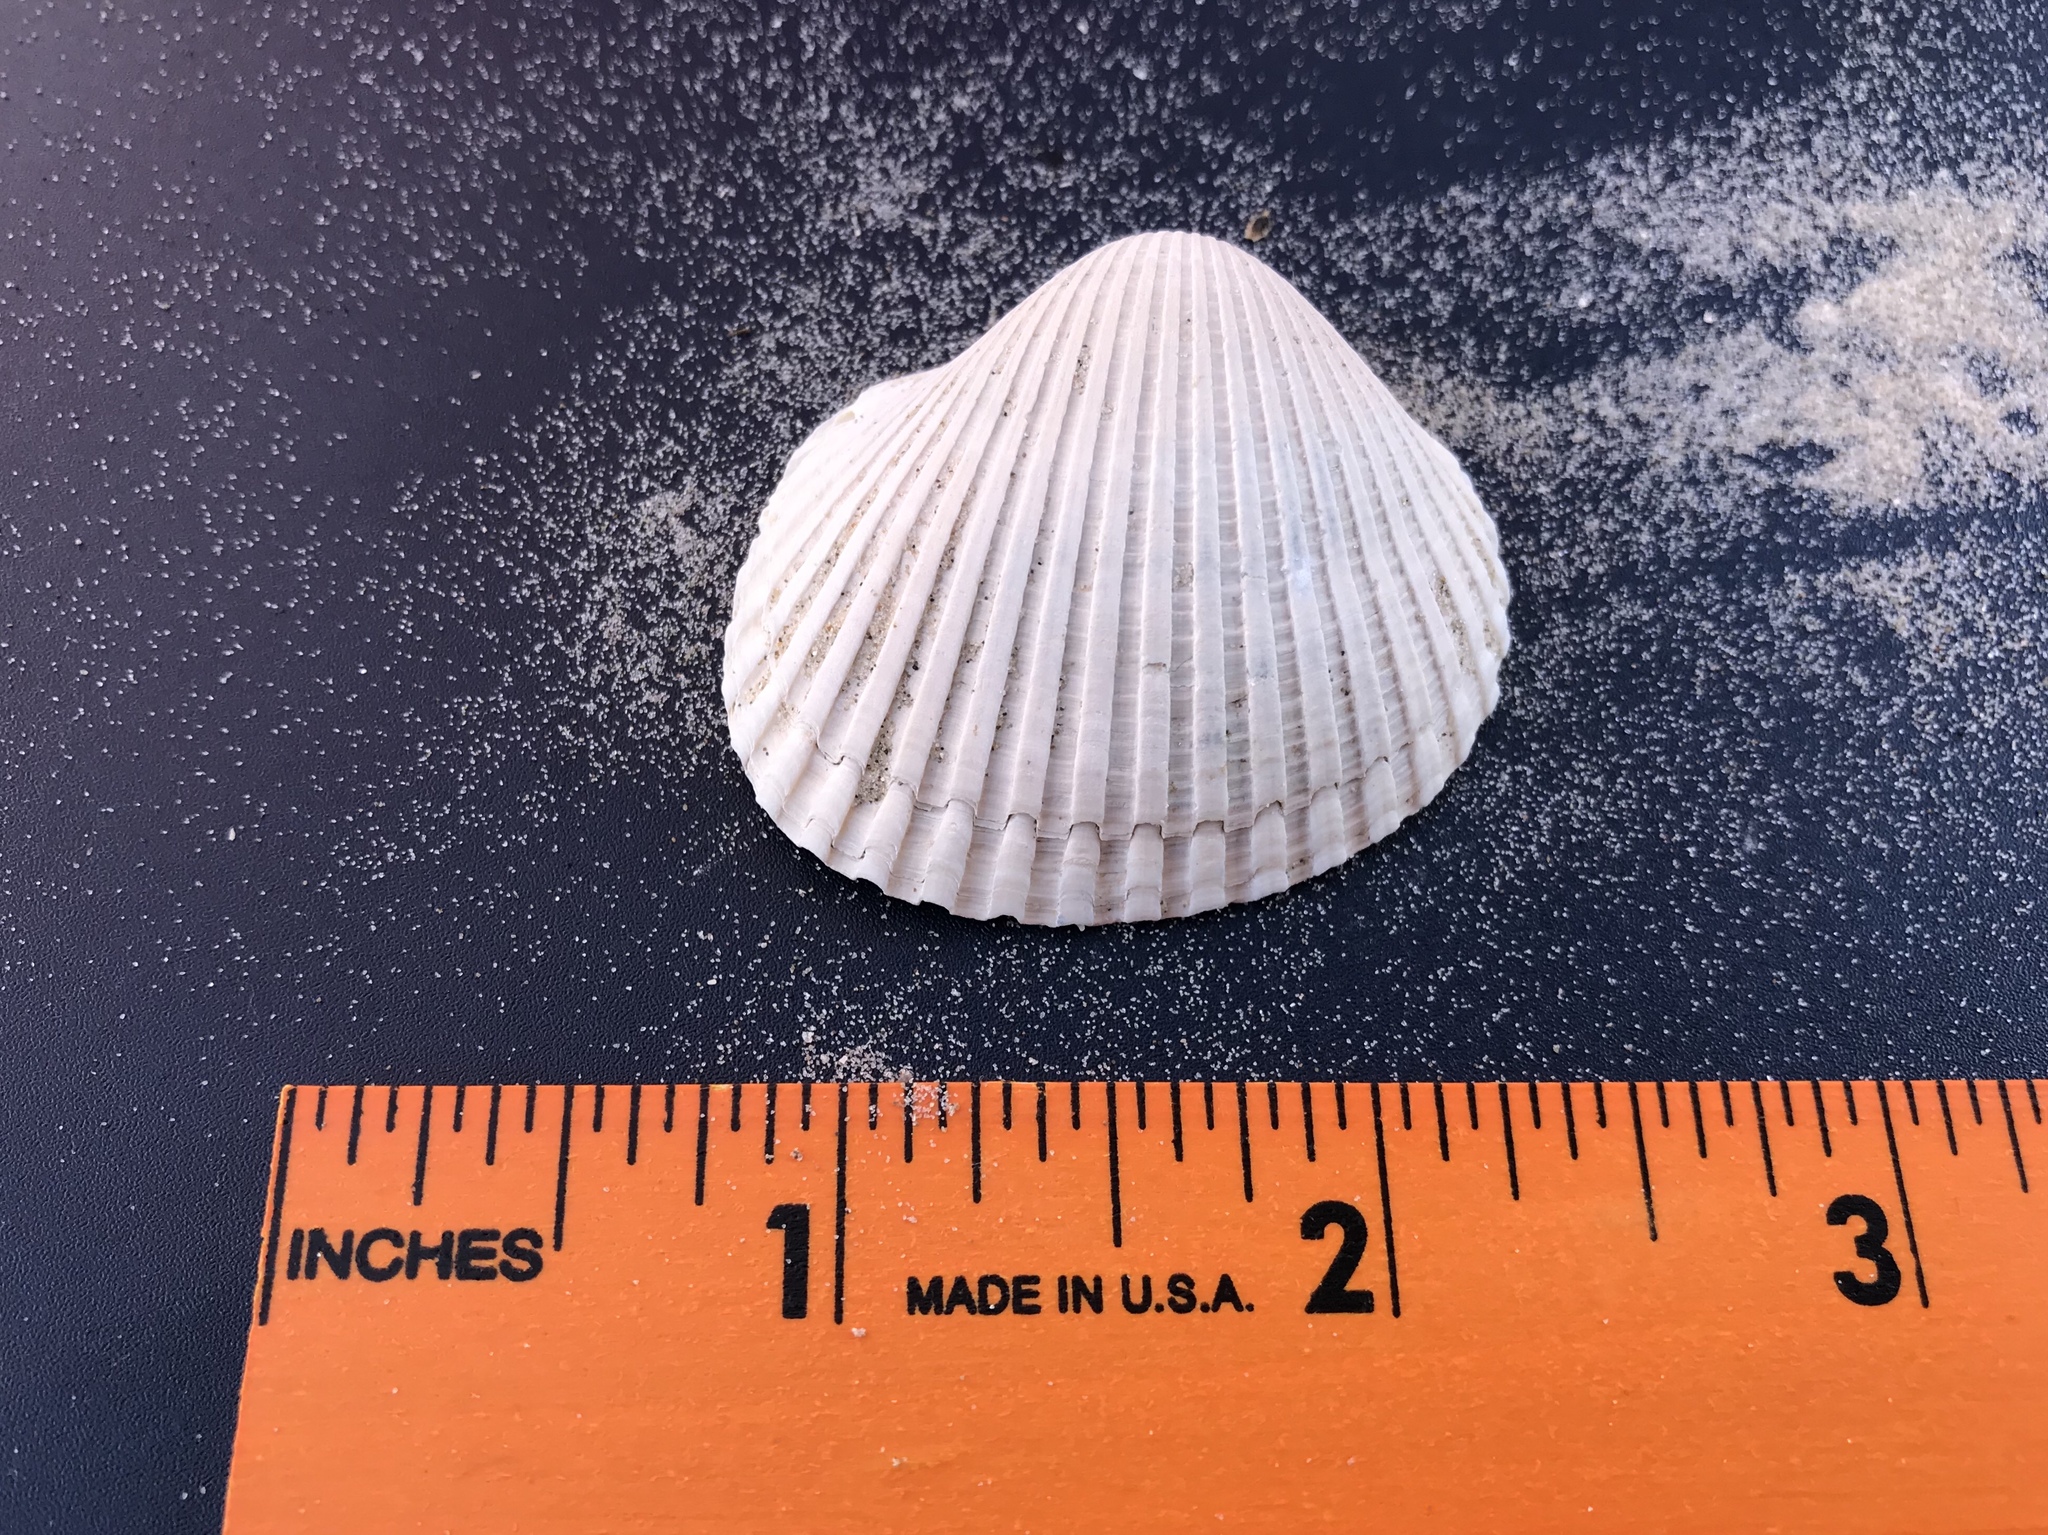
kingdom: Animalia
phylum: Mollusca
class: Bivalvia
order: Arcida
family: Arcidae
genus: Lunarca
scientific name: Lunarca ovalis
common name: Blood ark
